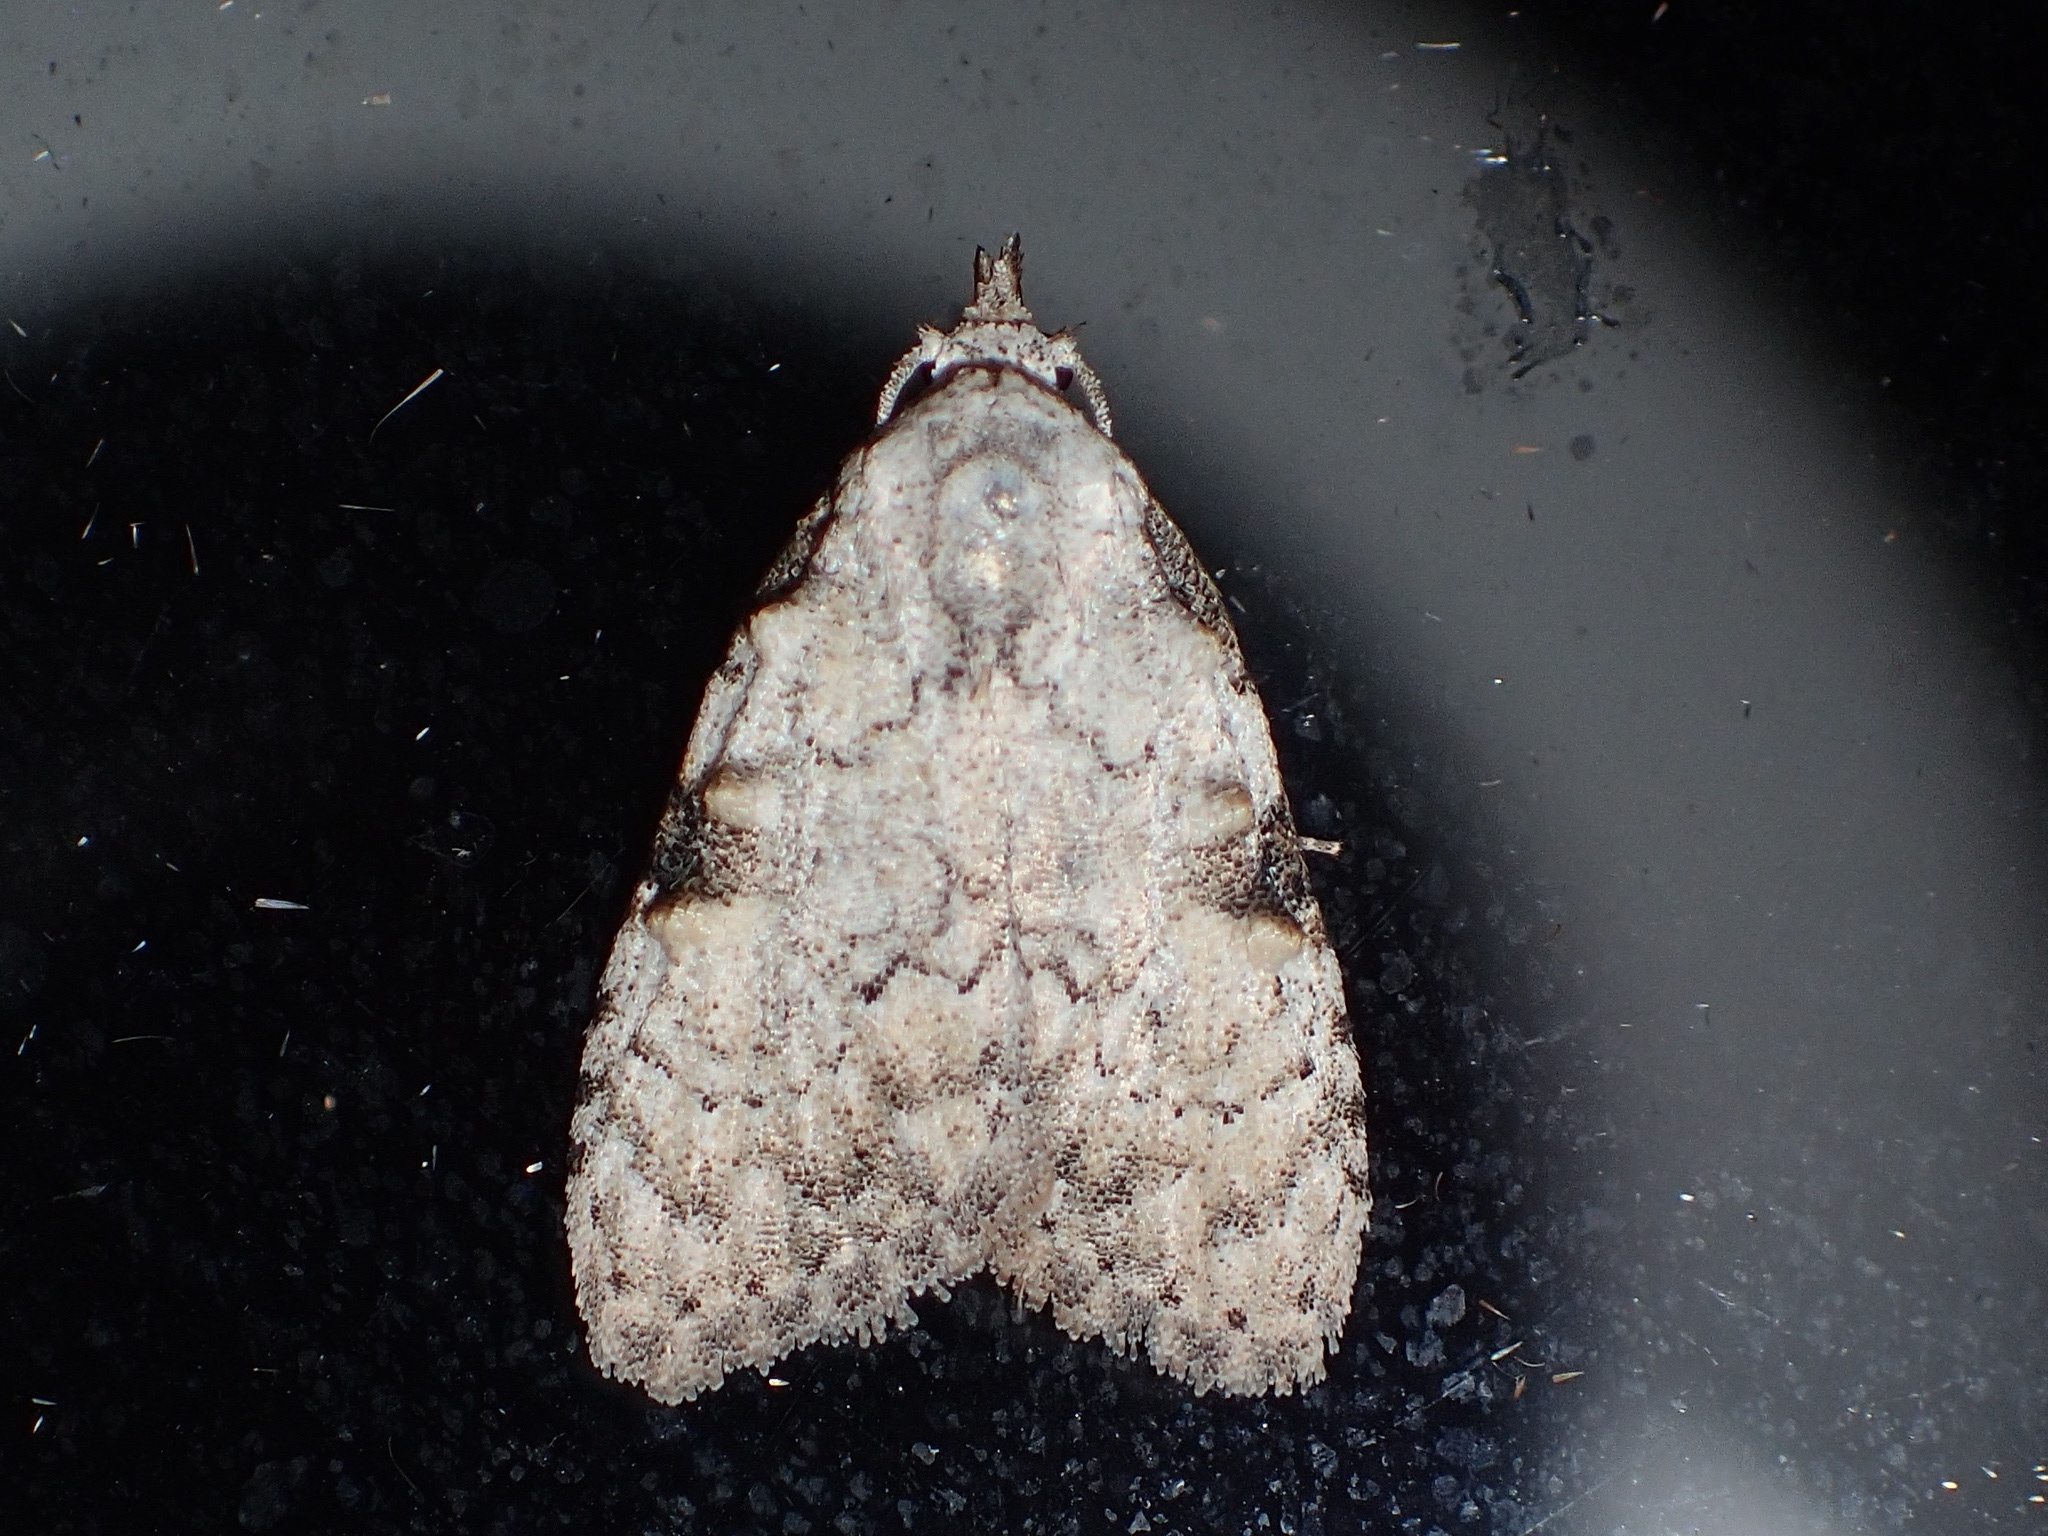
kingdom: Animalia
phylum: Arthropoda
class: Insecta
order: Lepidoptera
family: Nolidae
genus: Meganola
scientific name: Meganola minuscula
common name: Confused meganola moth
